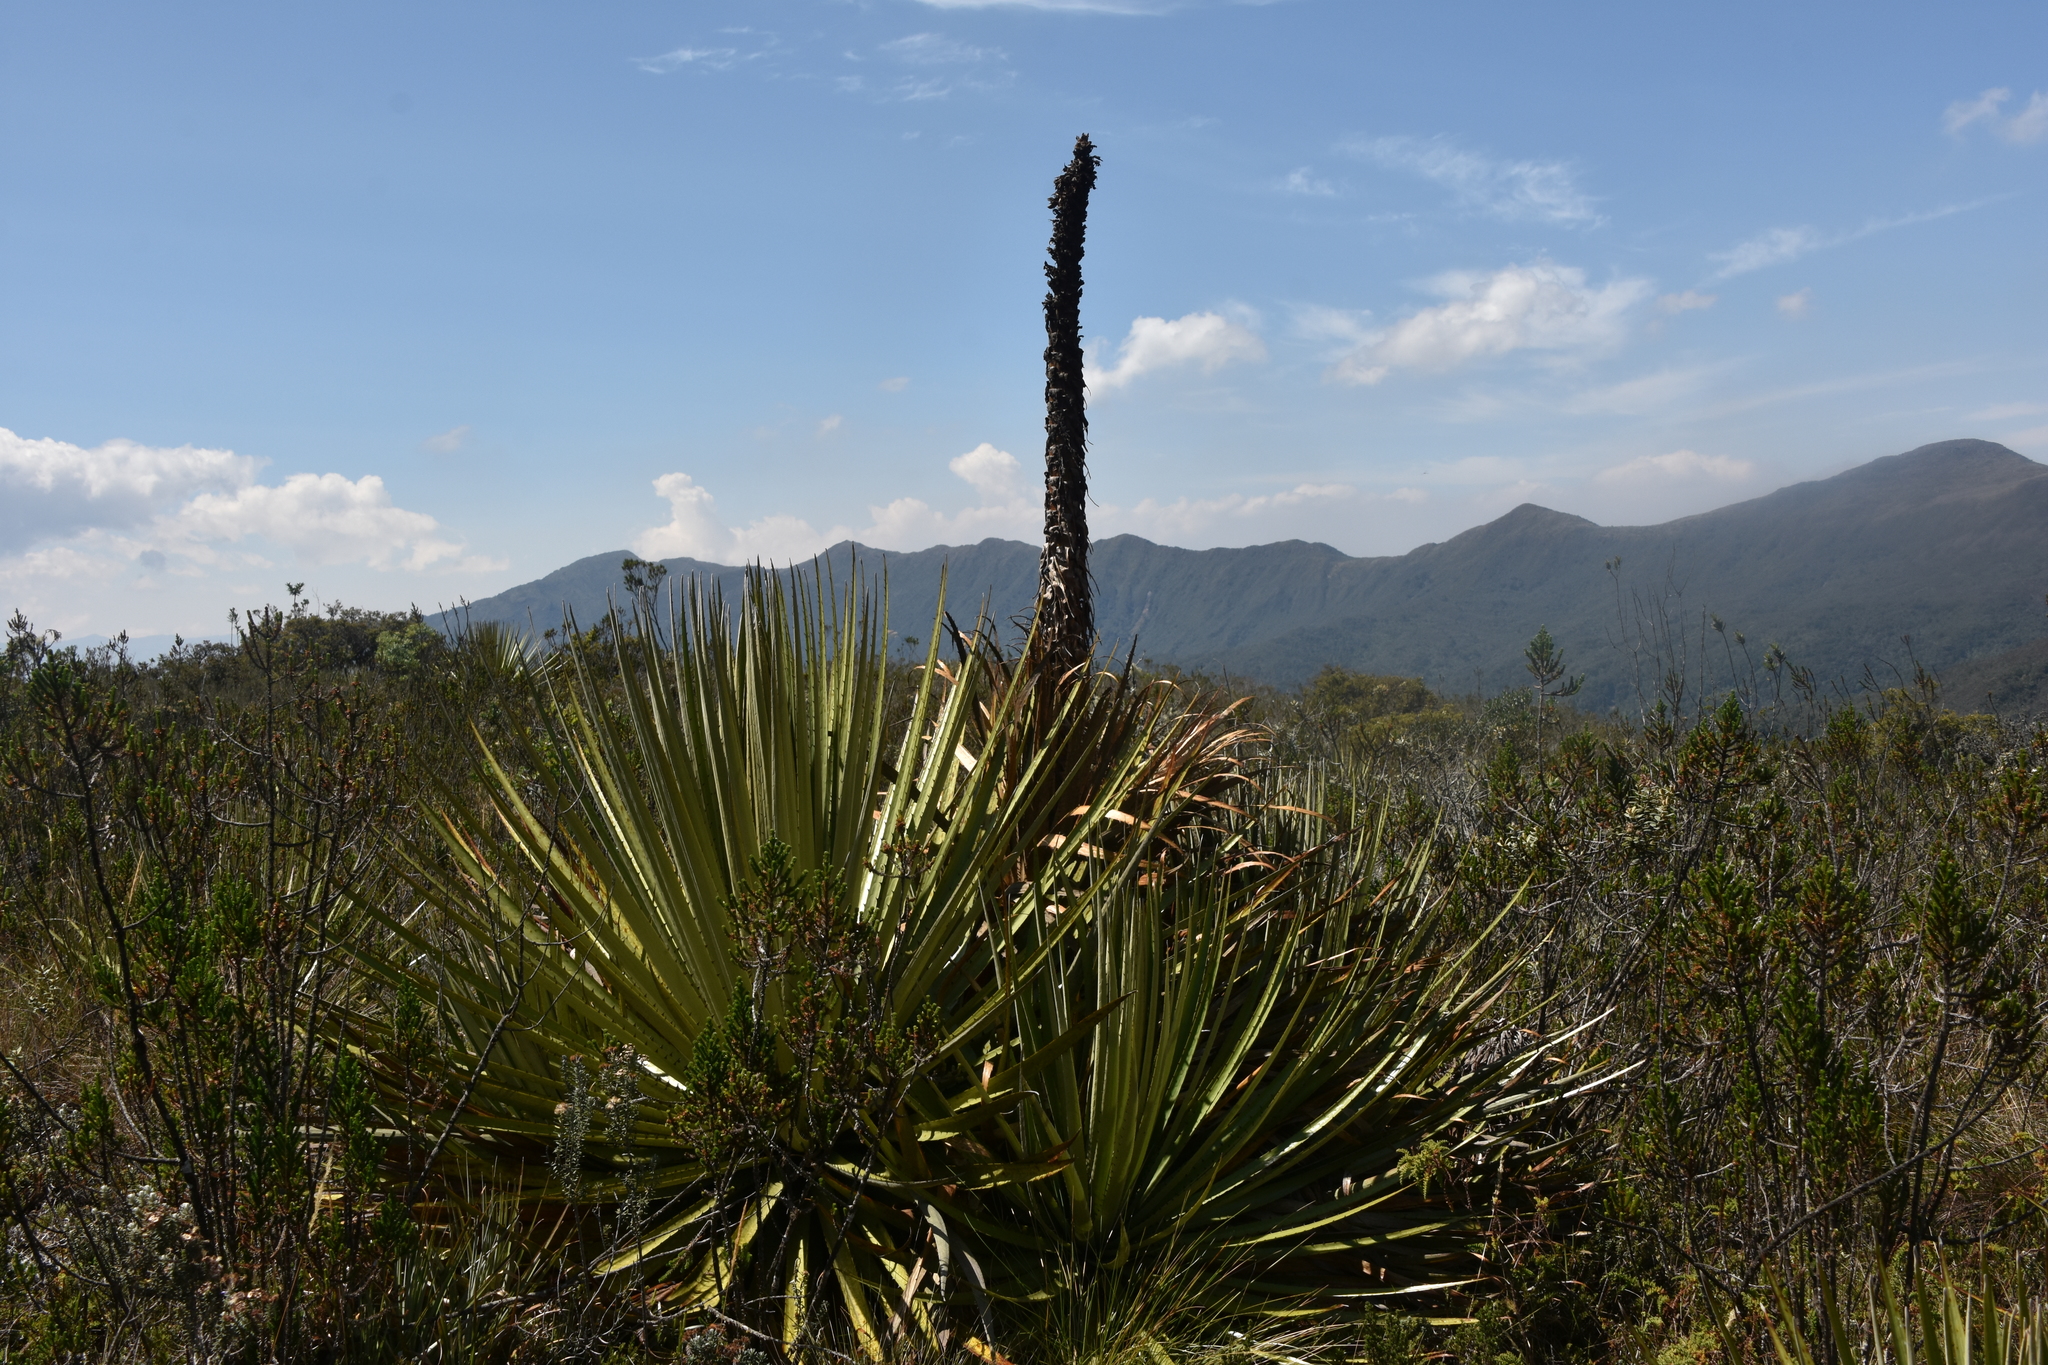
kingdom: Plantae
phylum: Tracheophyta
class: Liliopsida
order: Poales
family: Bromeliaceae
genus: Puya
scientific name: Puya goudotiana
